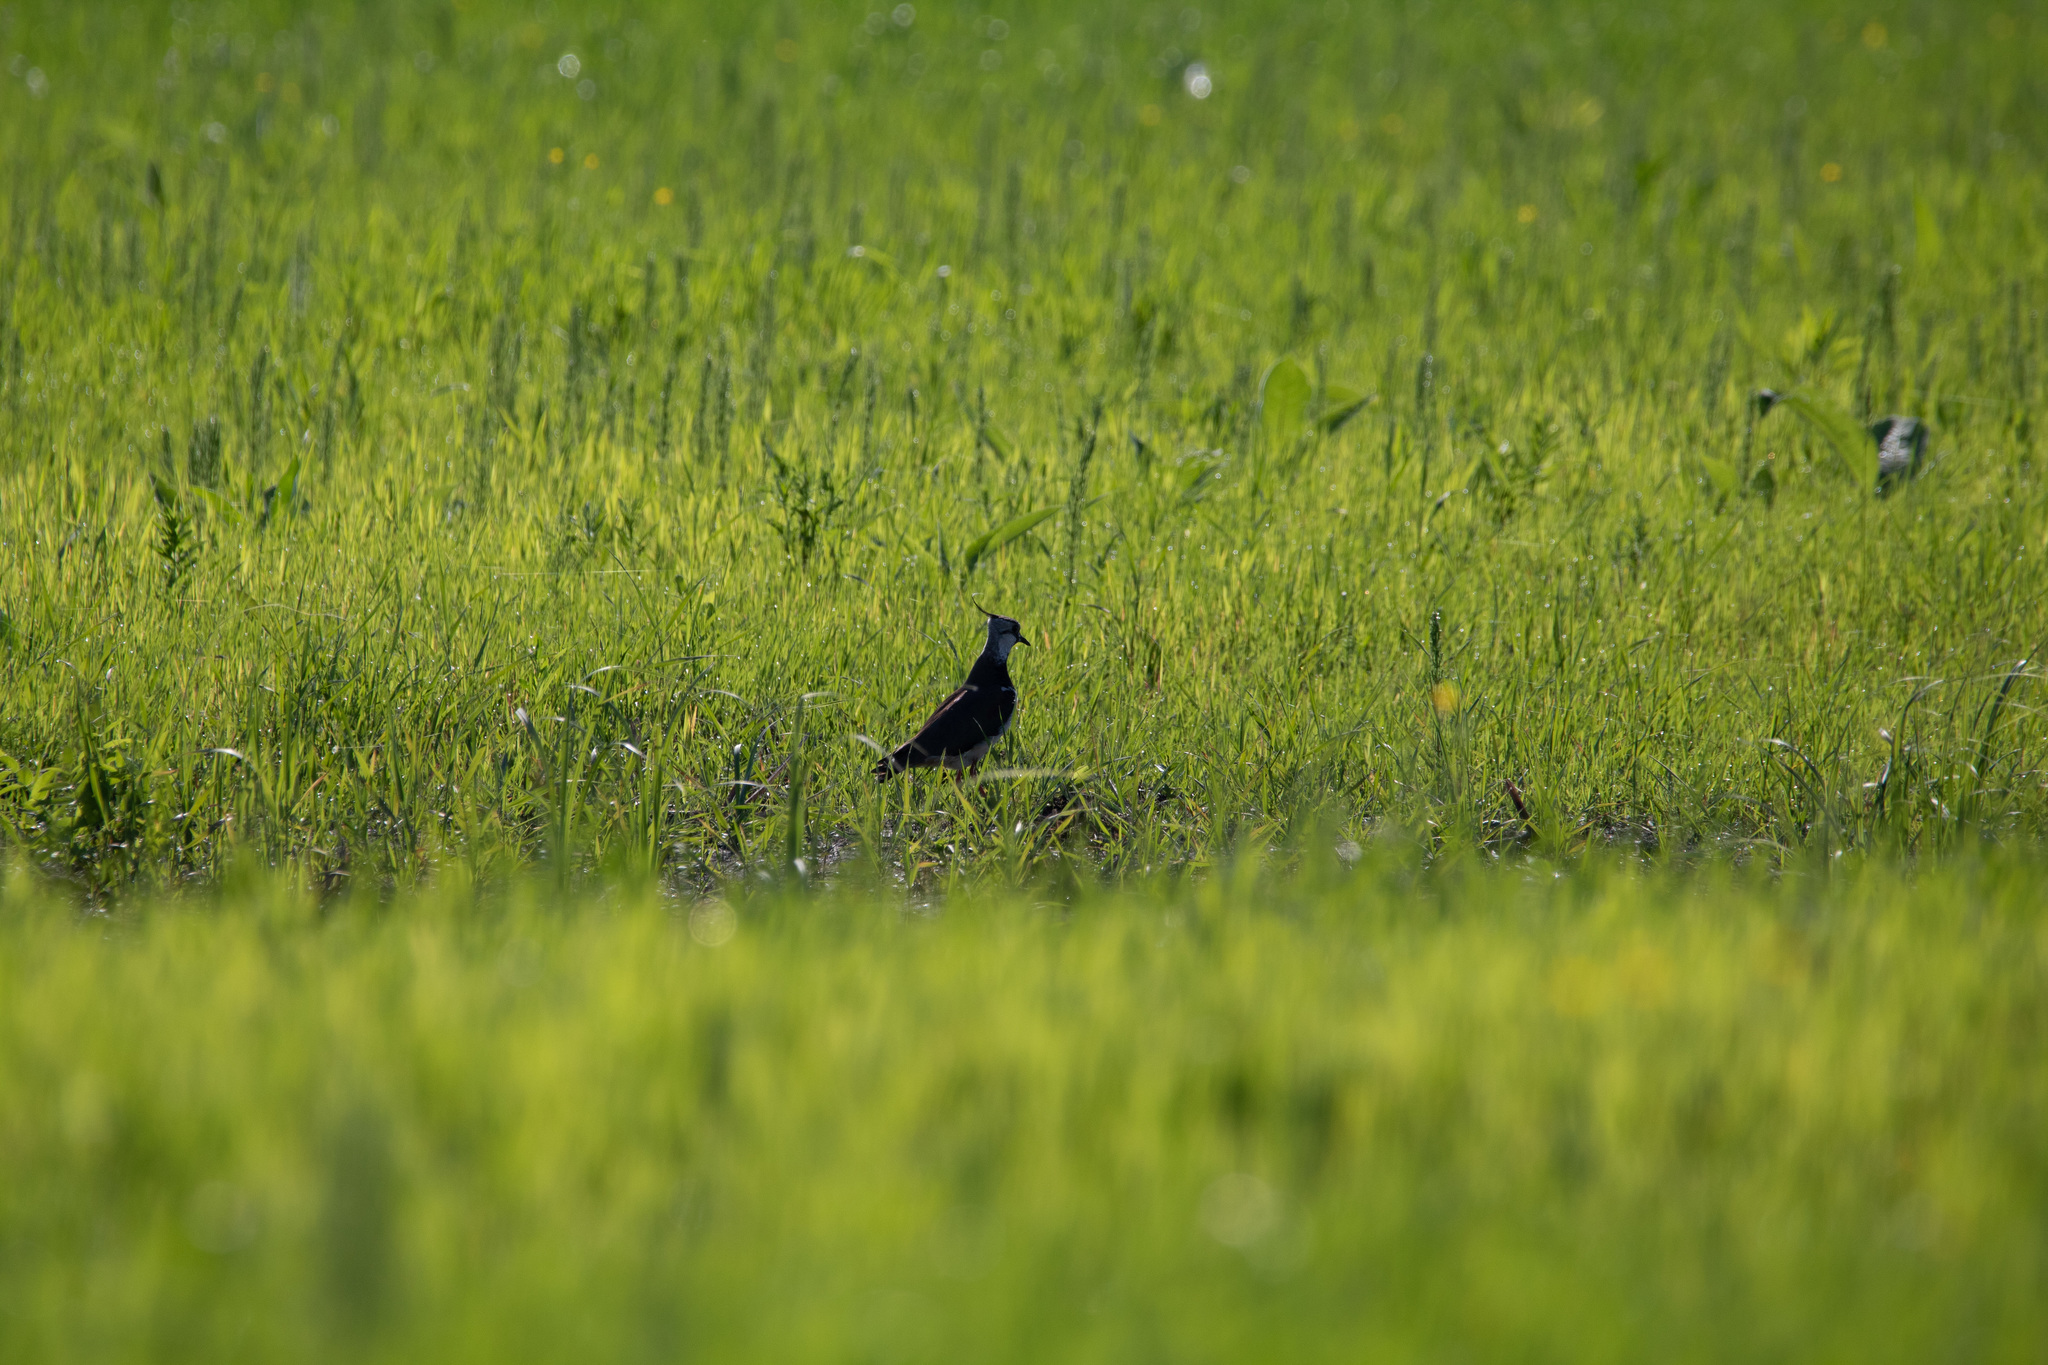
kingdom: Animalia
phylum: Chordata
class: Aves
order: Charadriiformes
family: Charadriidae
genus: Vanellus
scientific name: Vanellus vanellus
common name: Northern lapwing
